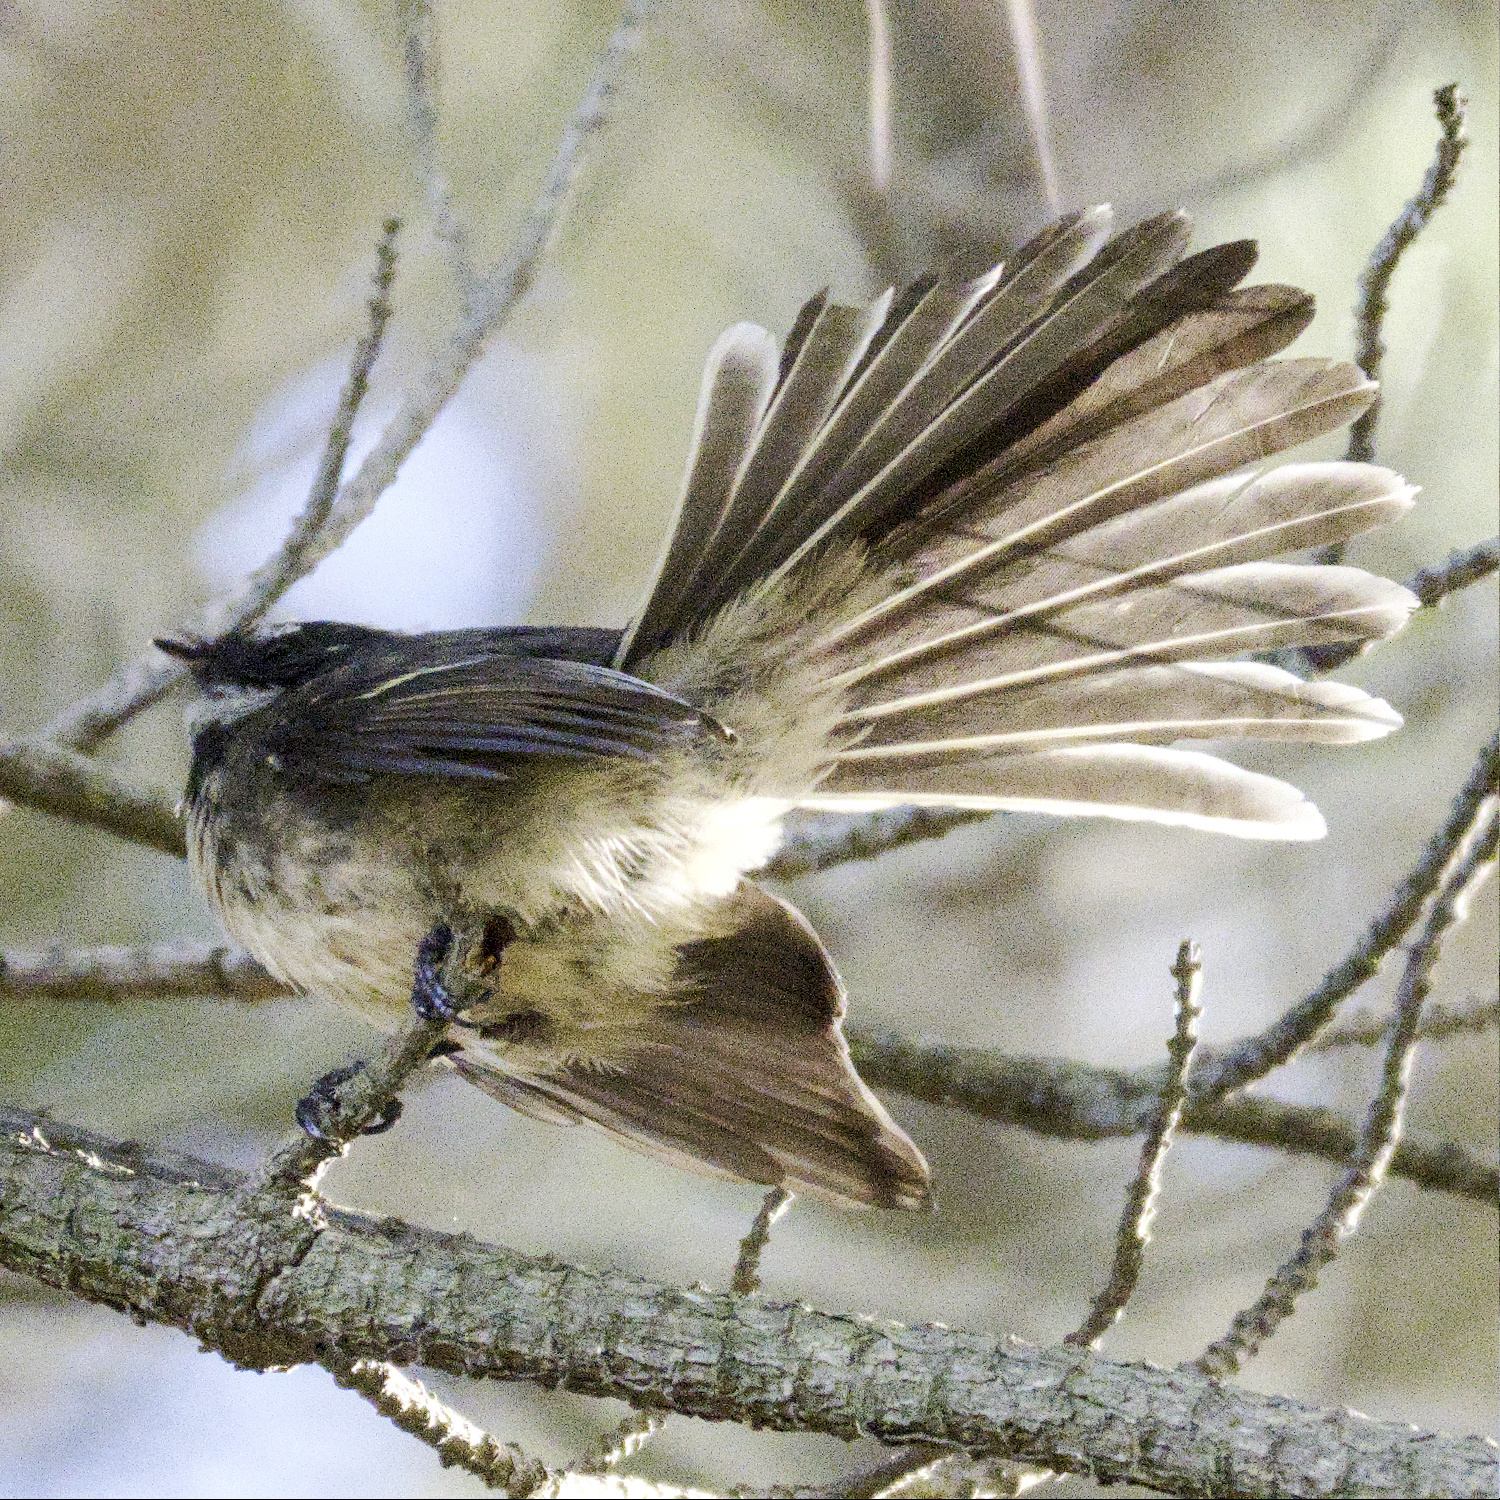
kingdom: Animalia
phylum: Chordata
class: Aves
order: Passeriformes
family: Rhipiduridae
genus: Rhipidura
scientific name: Rhipidura albiscapa
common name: Grey fantail
